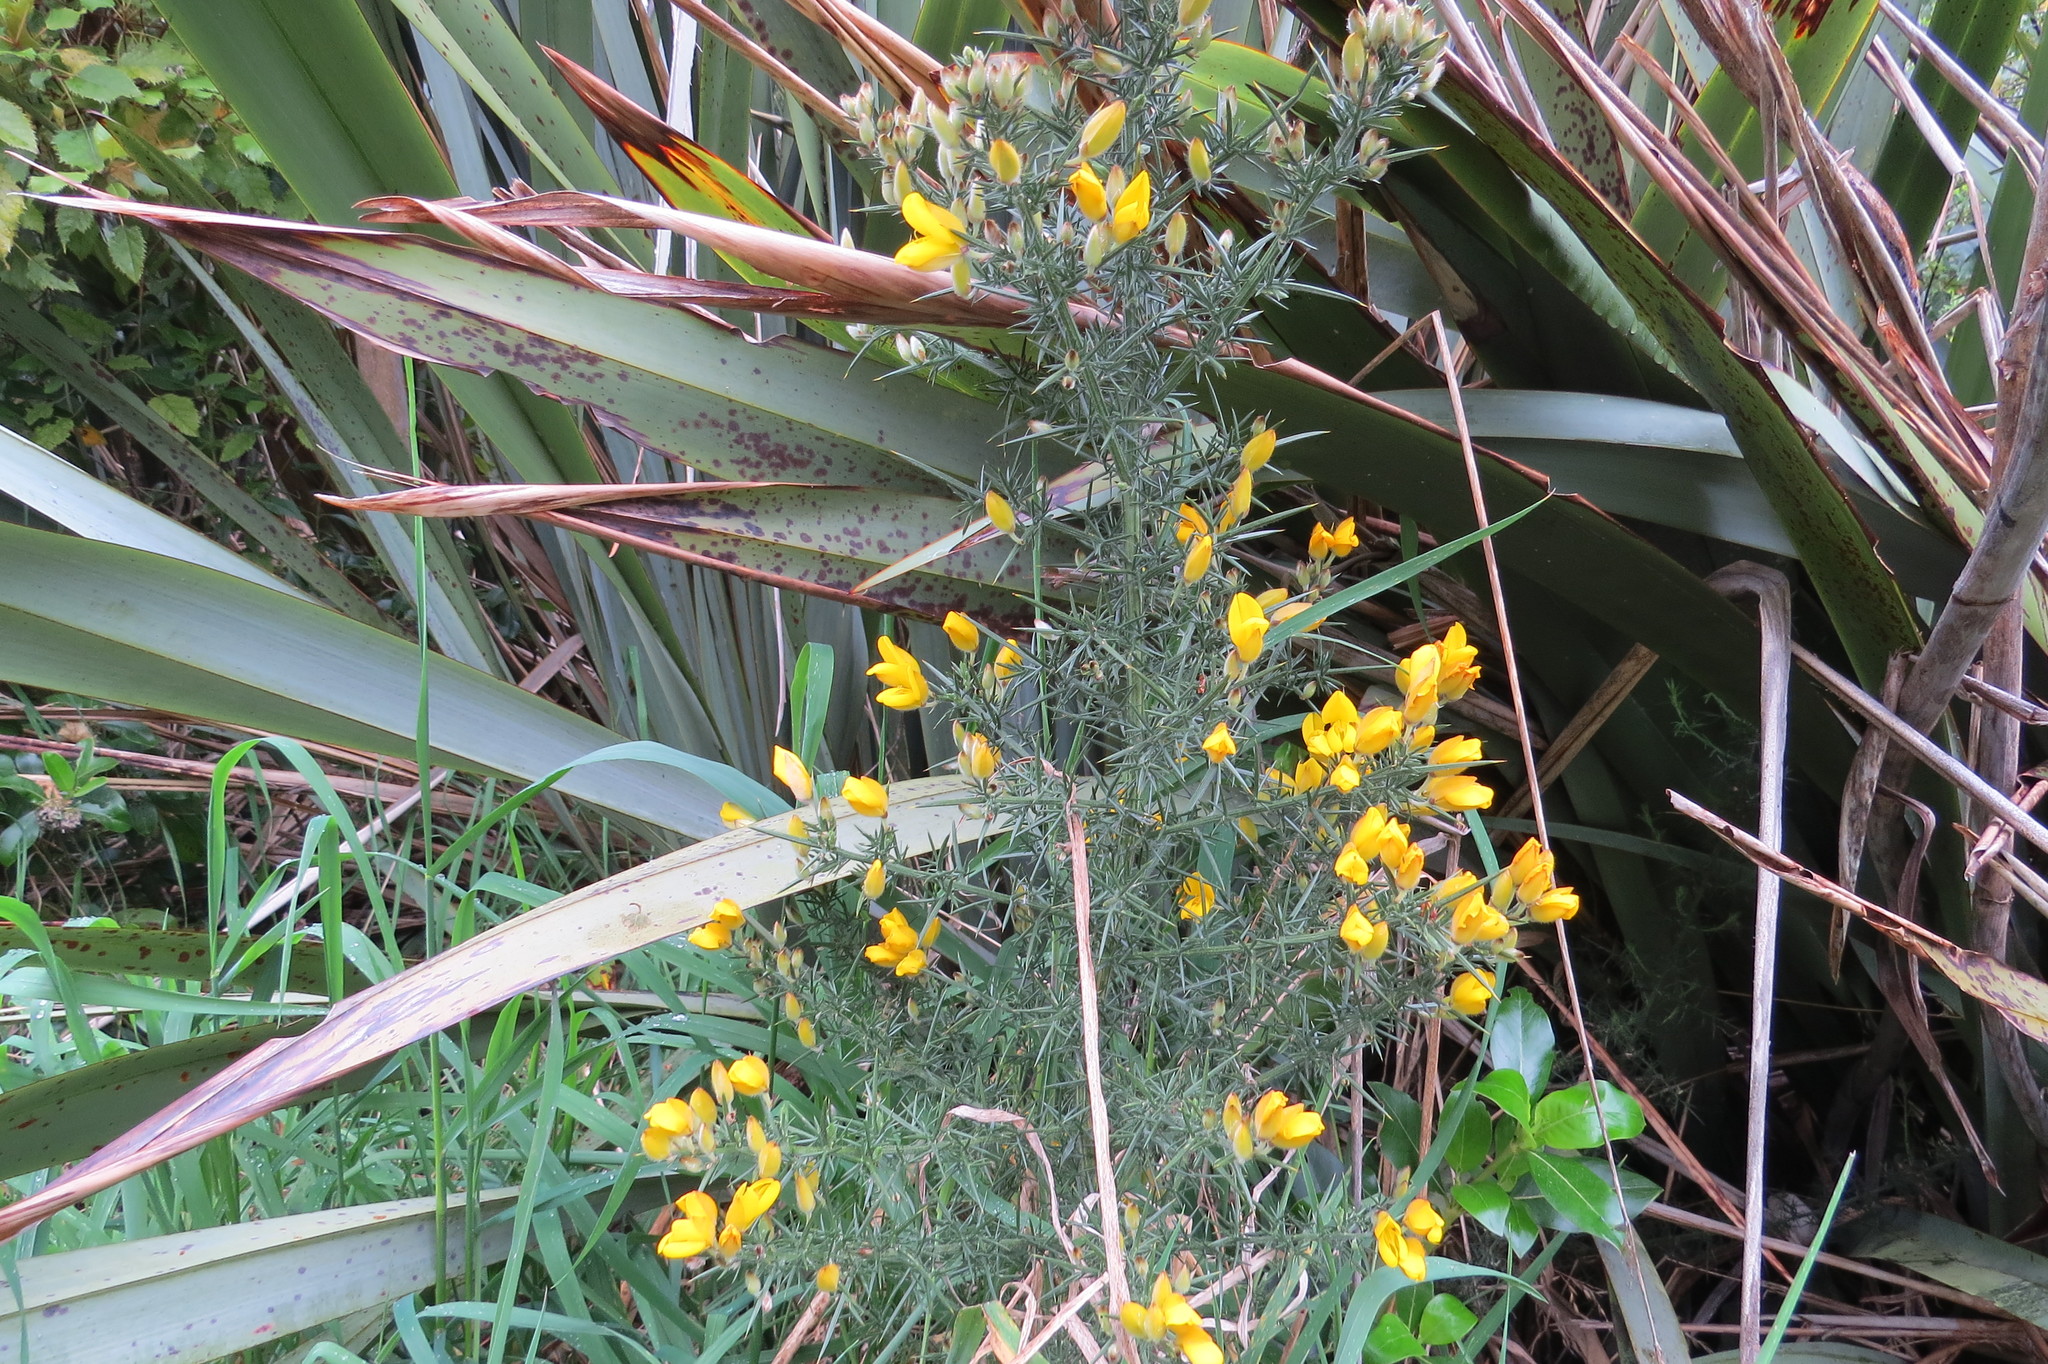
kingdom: Plantae
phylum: Tracheophyta
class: Magnoliopsida
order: Fabales
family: Fabaceae
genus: Ulex
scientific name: Ulex europaeus
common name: Common gorse
